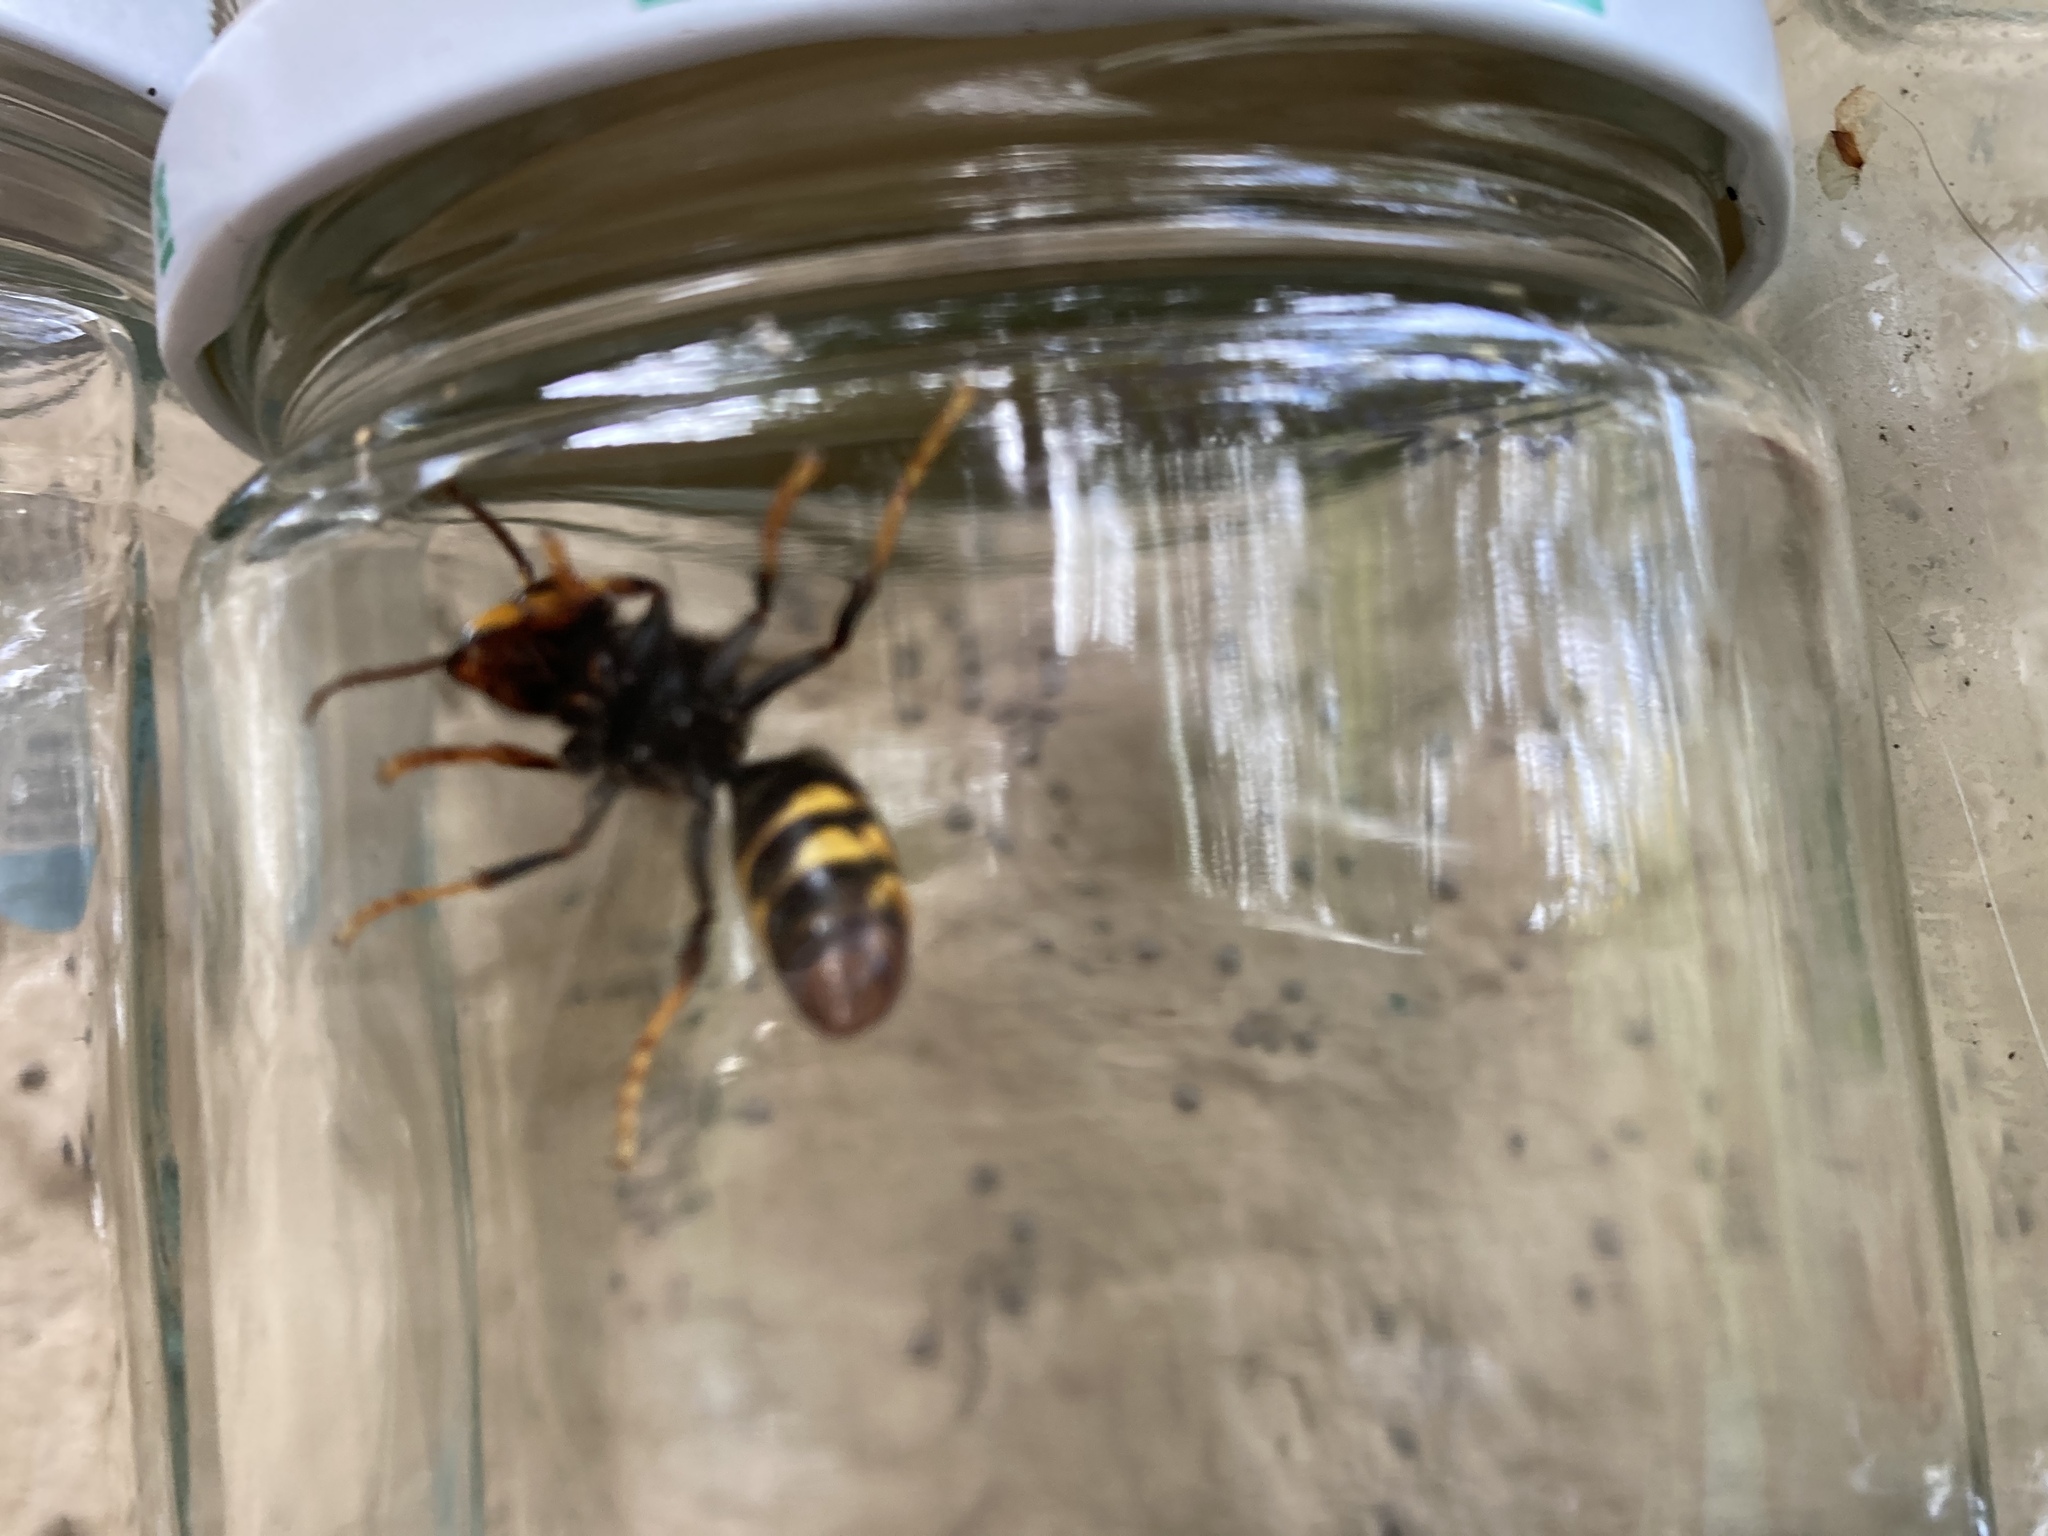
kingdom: Animalia
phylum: Arthropoda
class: Insecta
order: Hymenoptera
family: Vespidae
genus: Vespa
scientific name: Vespa velutina
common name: Asian hornet
